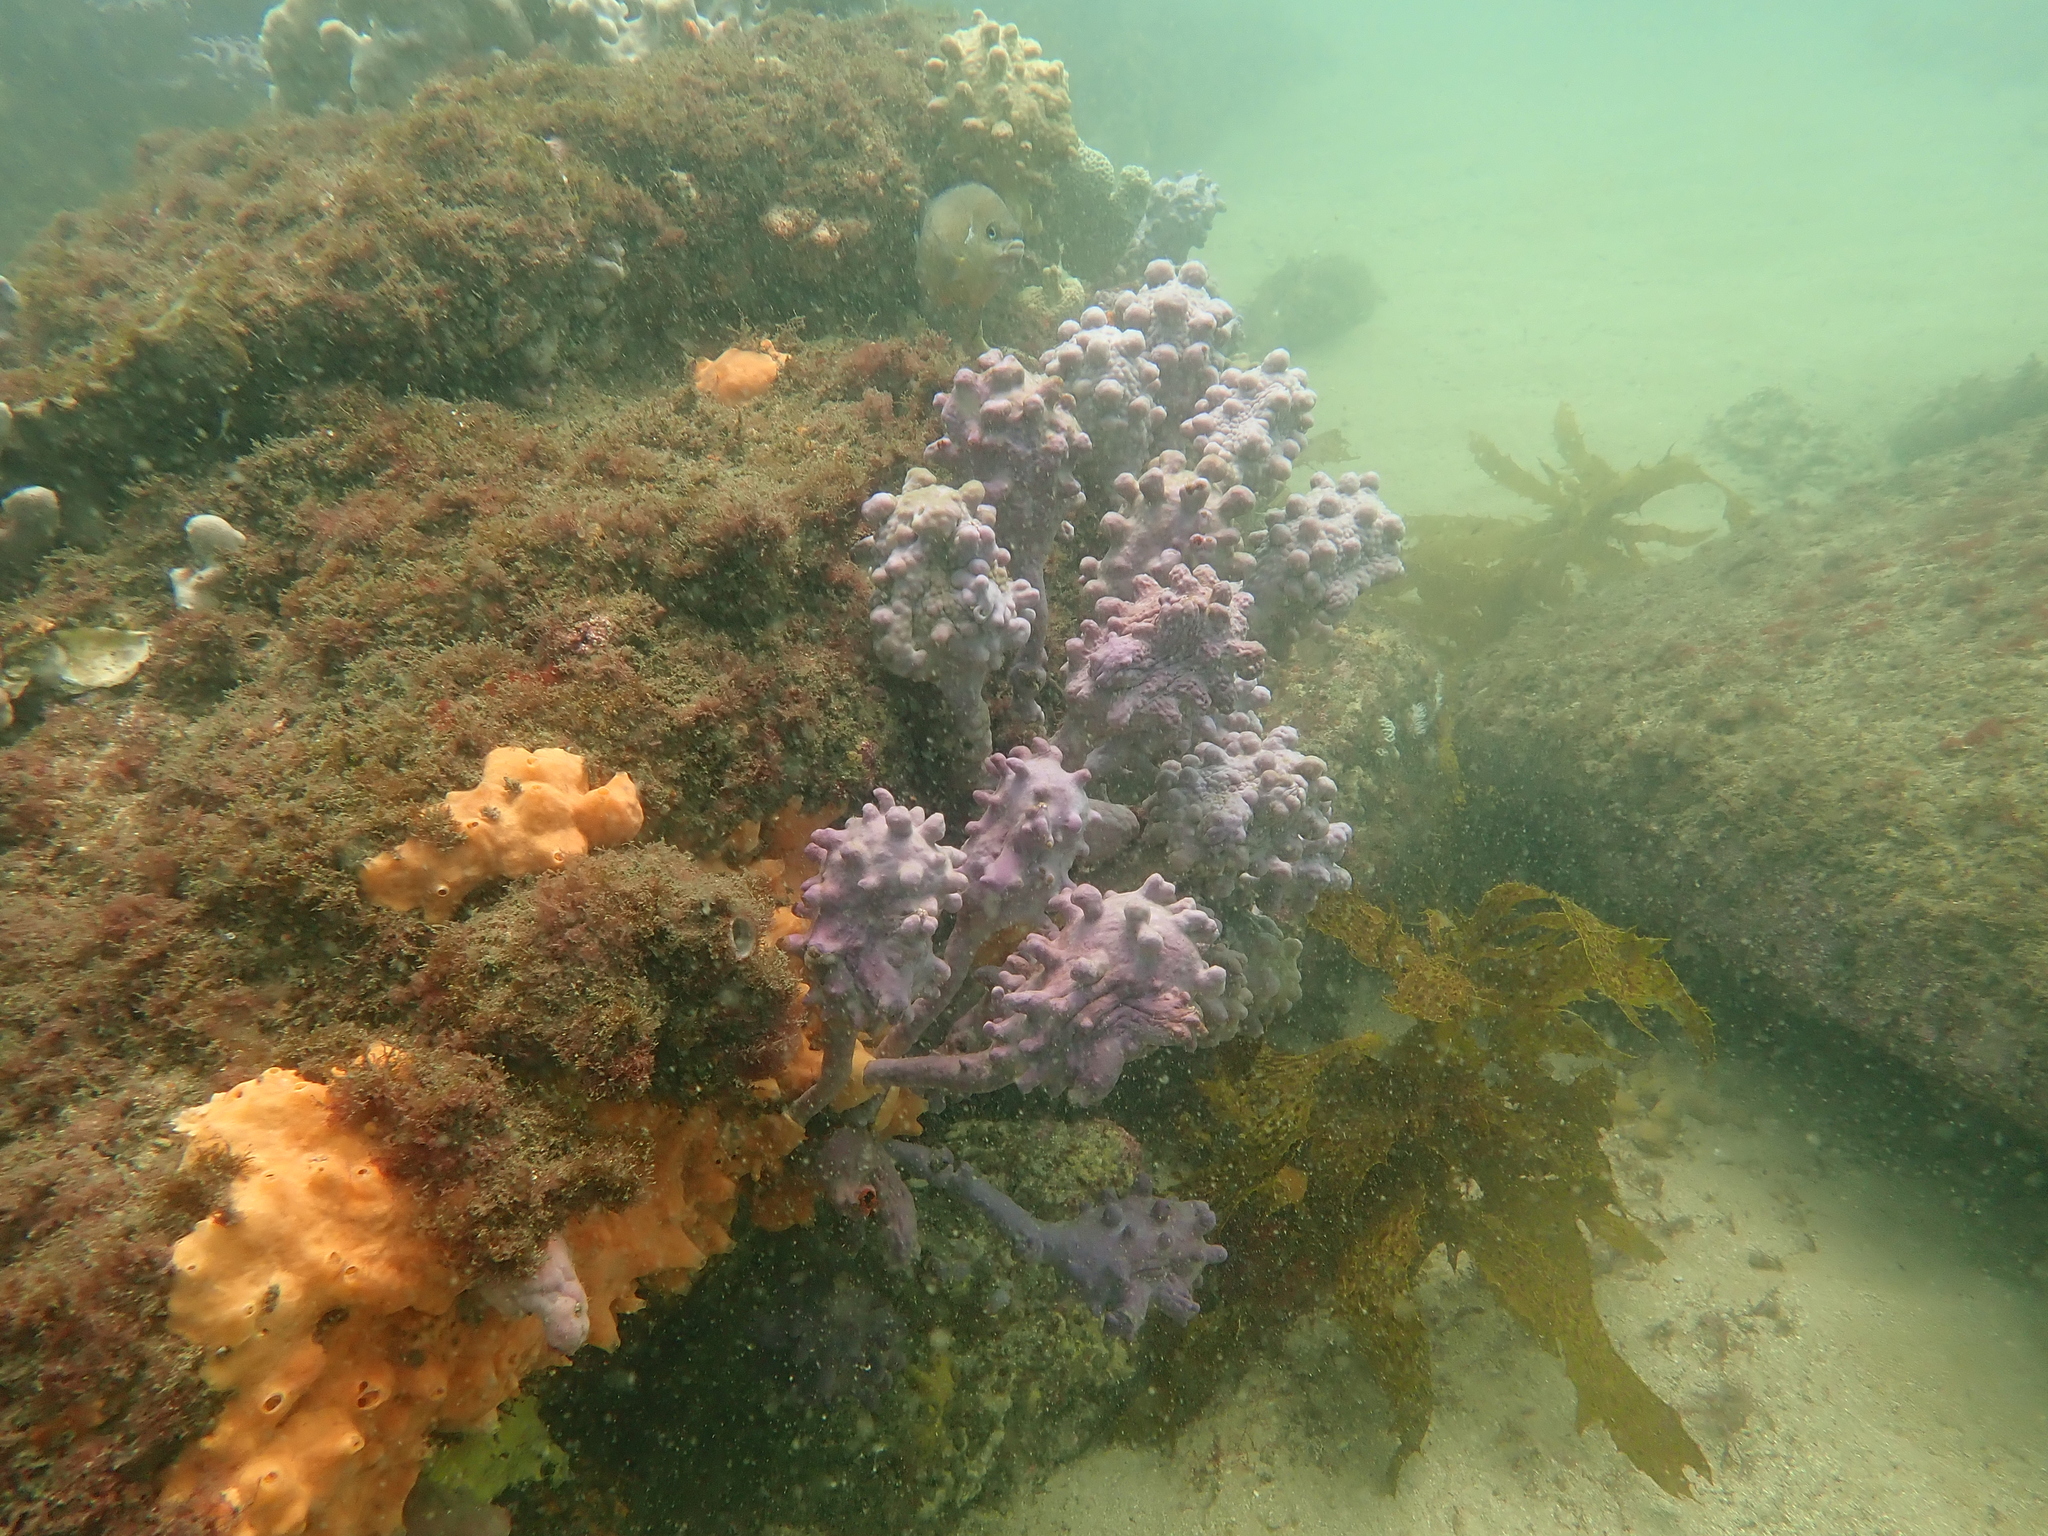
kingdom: Animalia
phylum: Chordata
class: Ascidiacea
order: Stolidobranchia
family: Pyuridae
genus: Pyura
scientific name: Pyura spinifera
